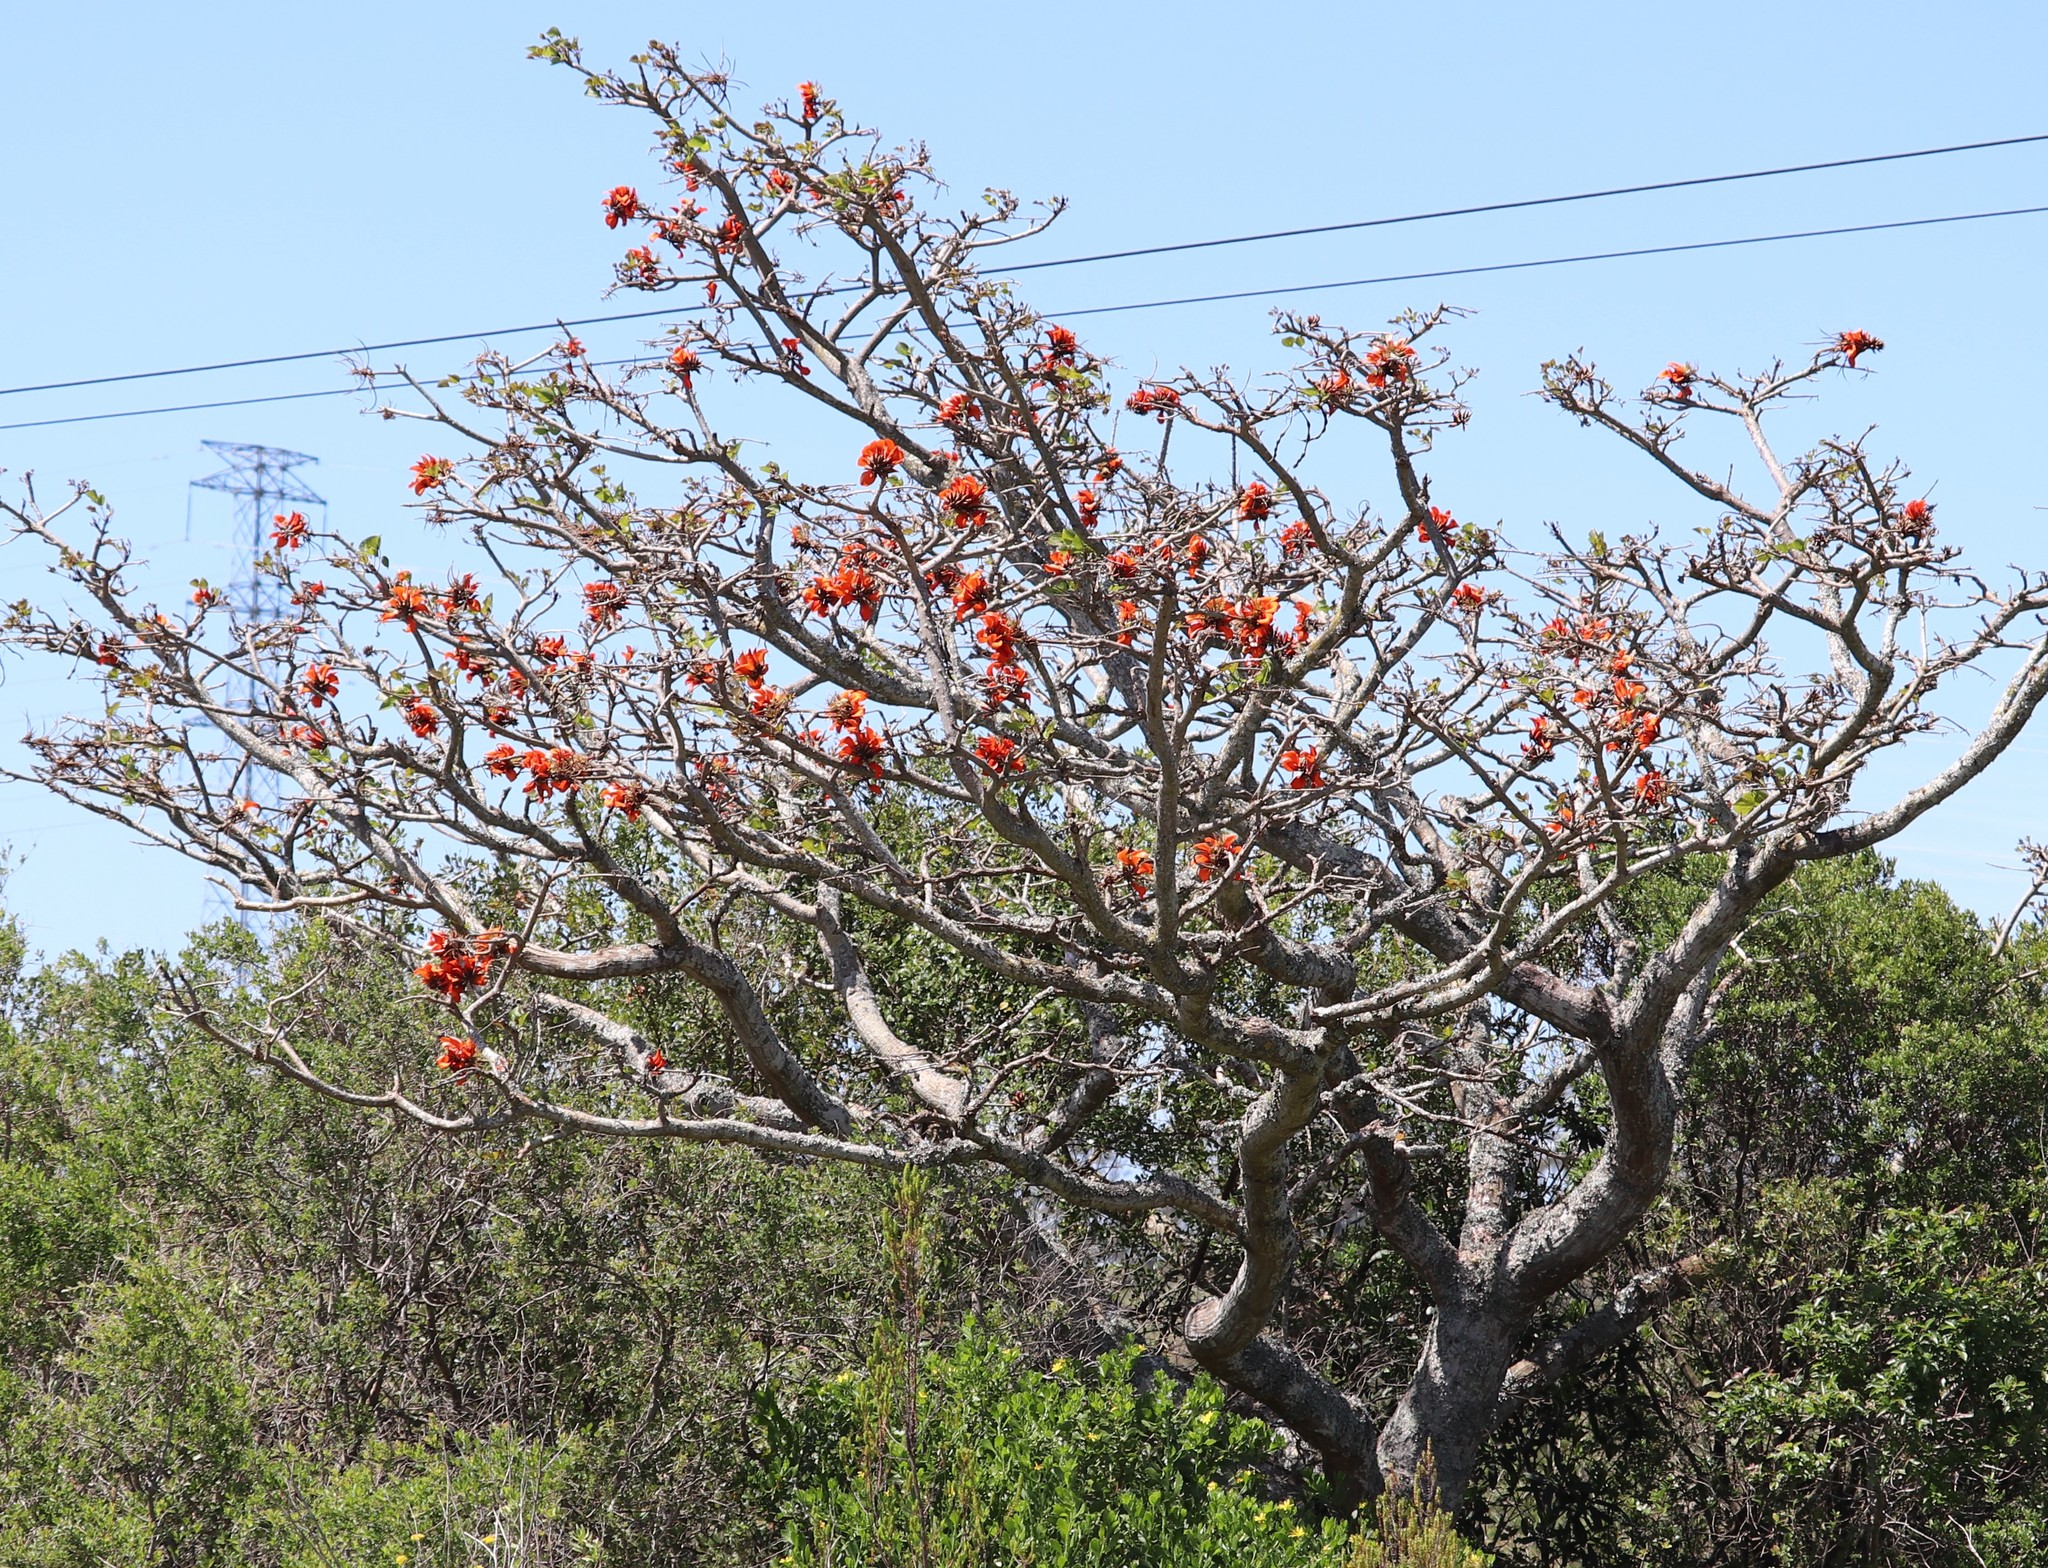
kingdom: Plantae
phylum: Tracheophyta
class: Magnoliopsida
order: Fabales
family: Fabaceae
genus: Erythrina
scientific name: Erythrina caffra
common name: Coast coral tree
